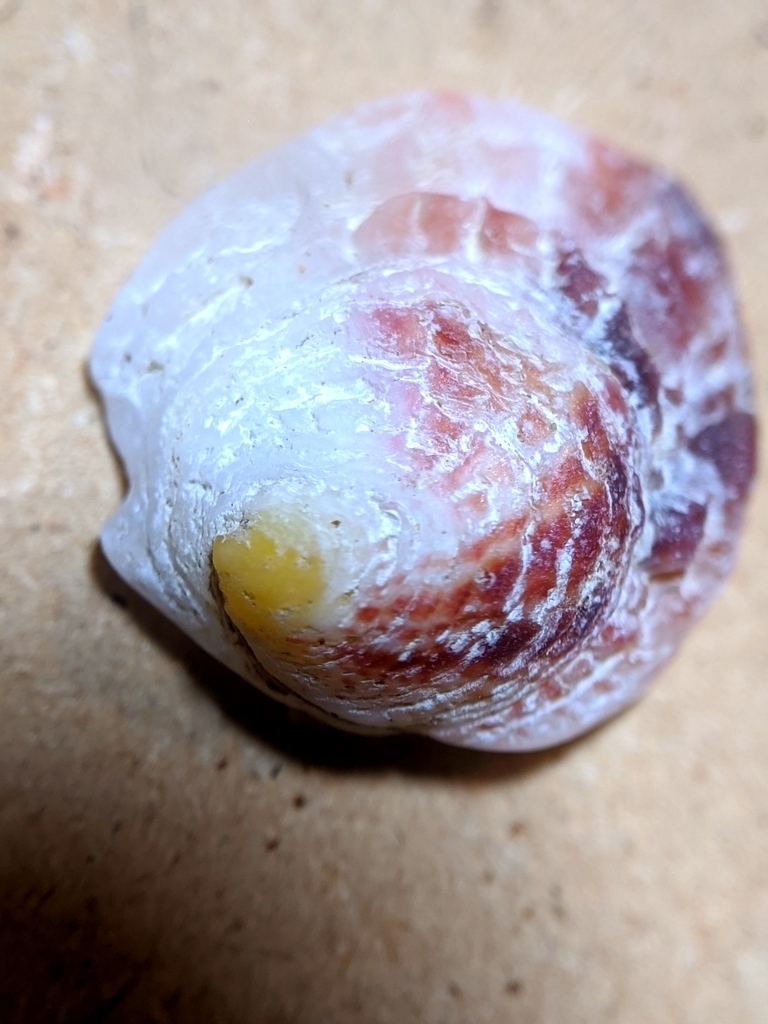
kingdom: Animalia
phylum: Mollusca
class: Bivalvia
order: Venerida
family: Chamidae
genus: Chama
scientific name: Chama arcana
